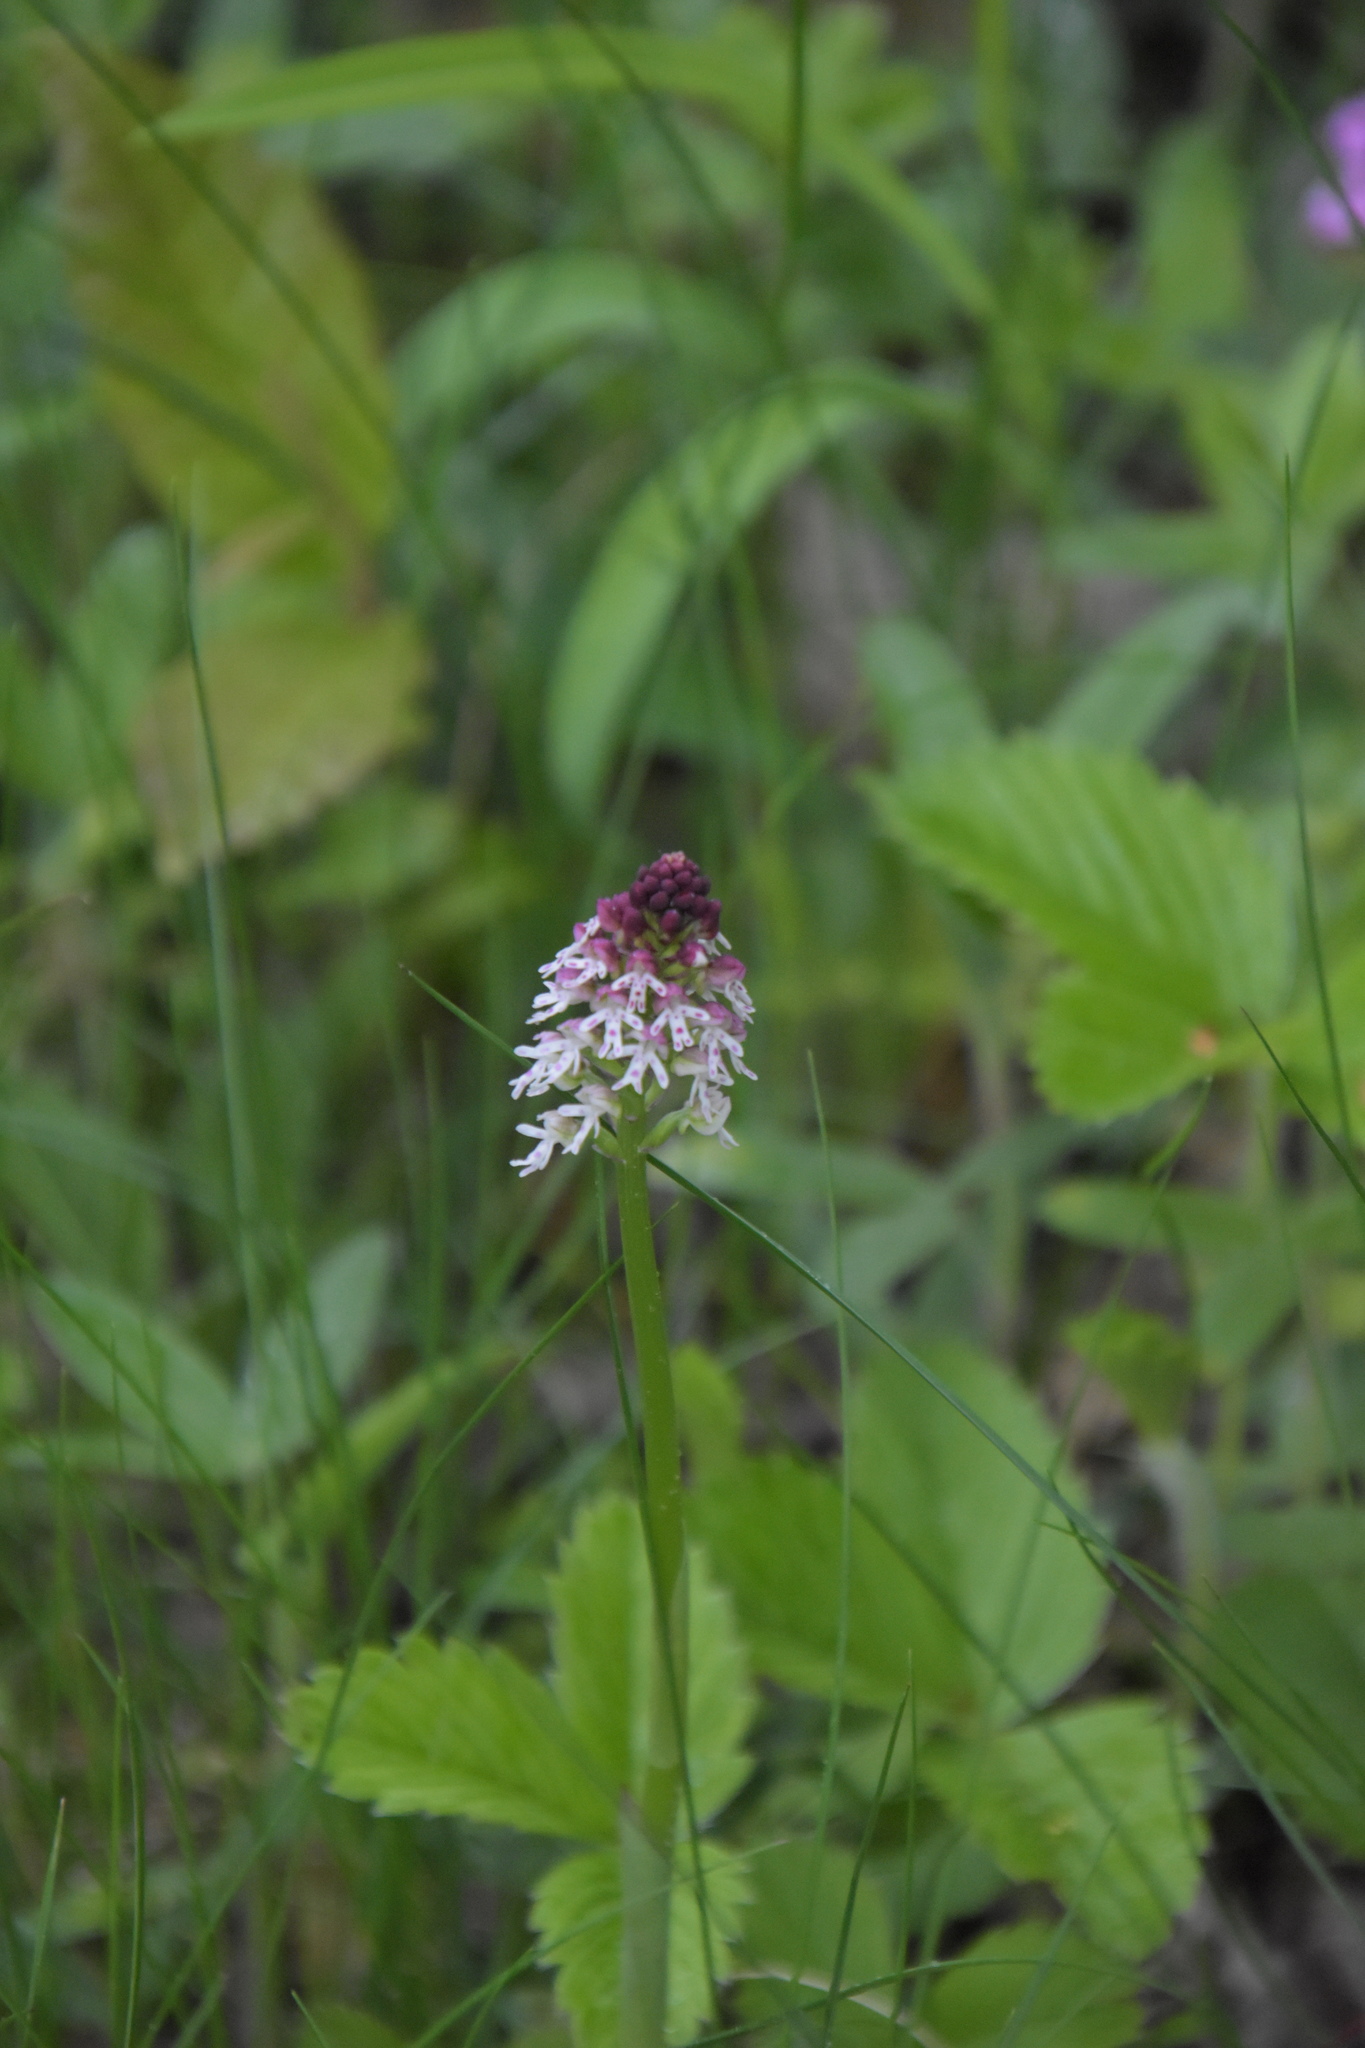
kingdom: Plantae
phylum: Tracheophyta
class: Liliopsida
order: Asparagales
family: Orchidaceae
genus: Neotinea
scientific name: Neotinea ustulata
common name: Burnt orchid
